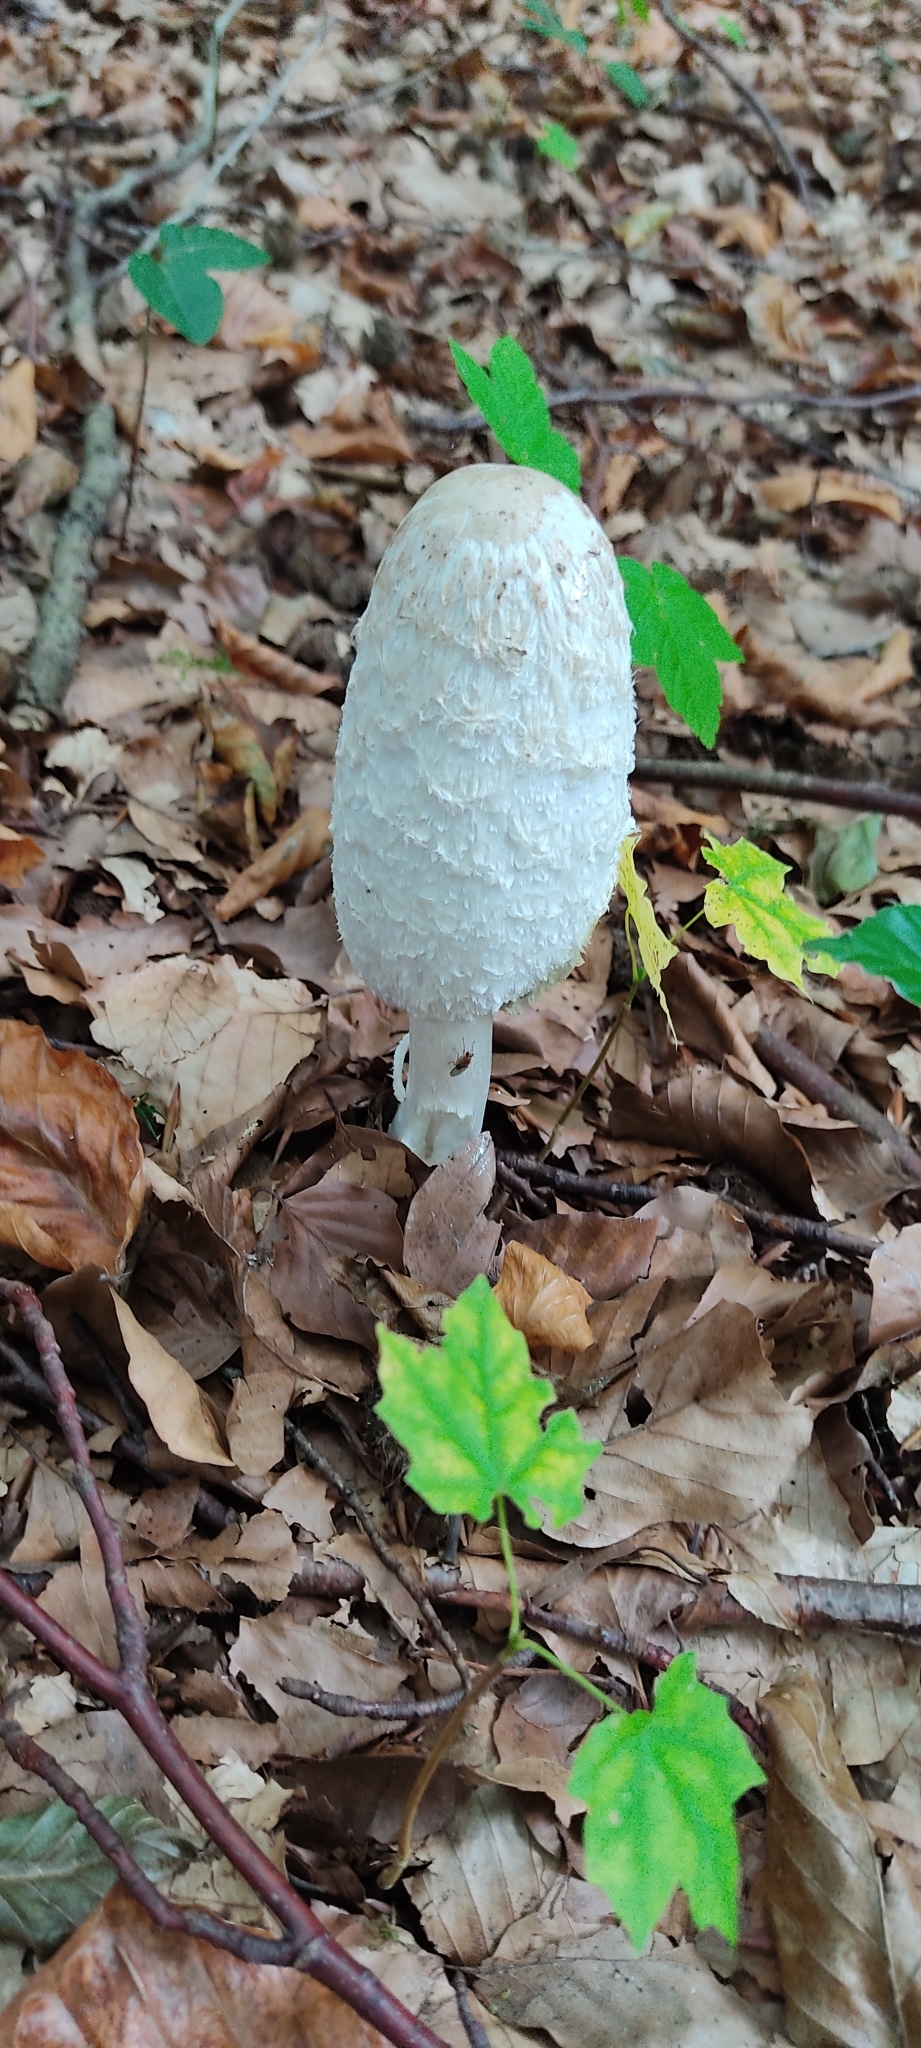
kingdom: Fungi
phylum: Basidiomycota
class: Agaricomycetes
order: Agaricales
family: Agaricaceae
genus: Coprinus
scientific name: Coprinus comatus
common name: Lawyer's wig
